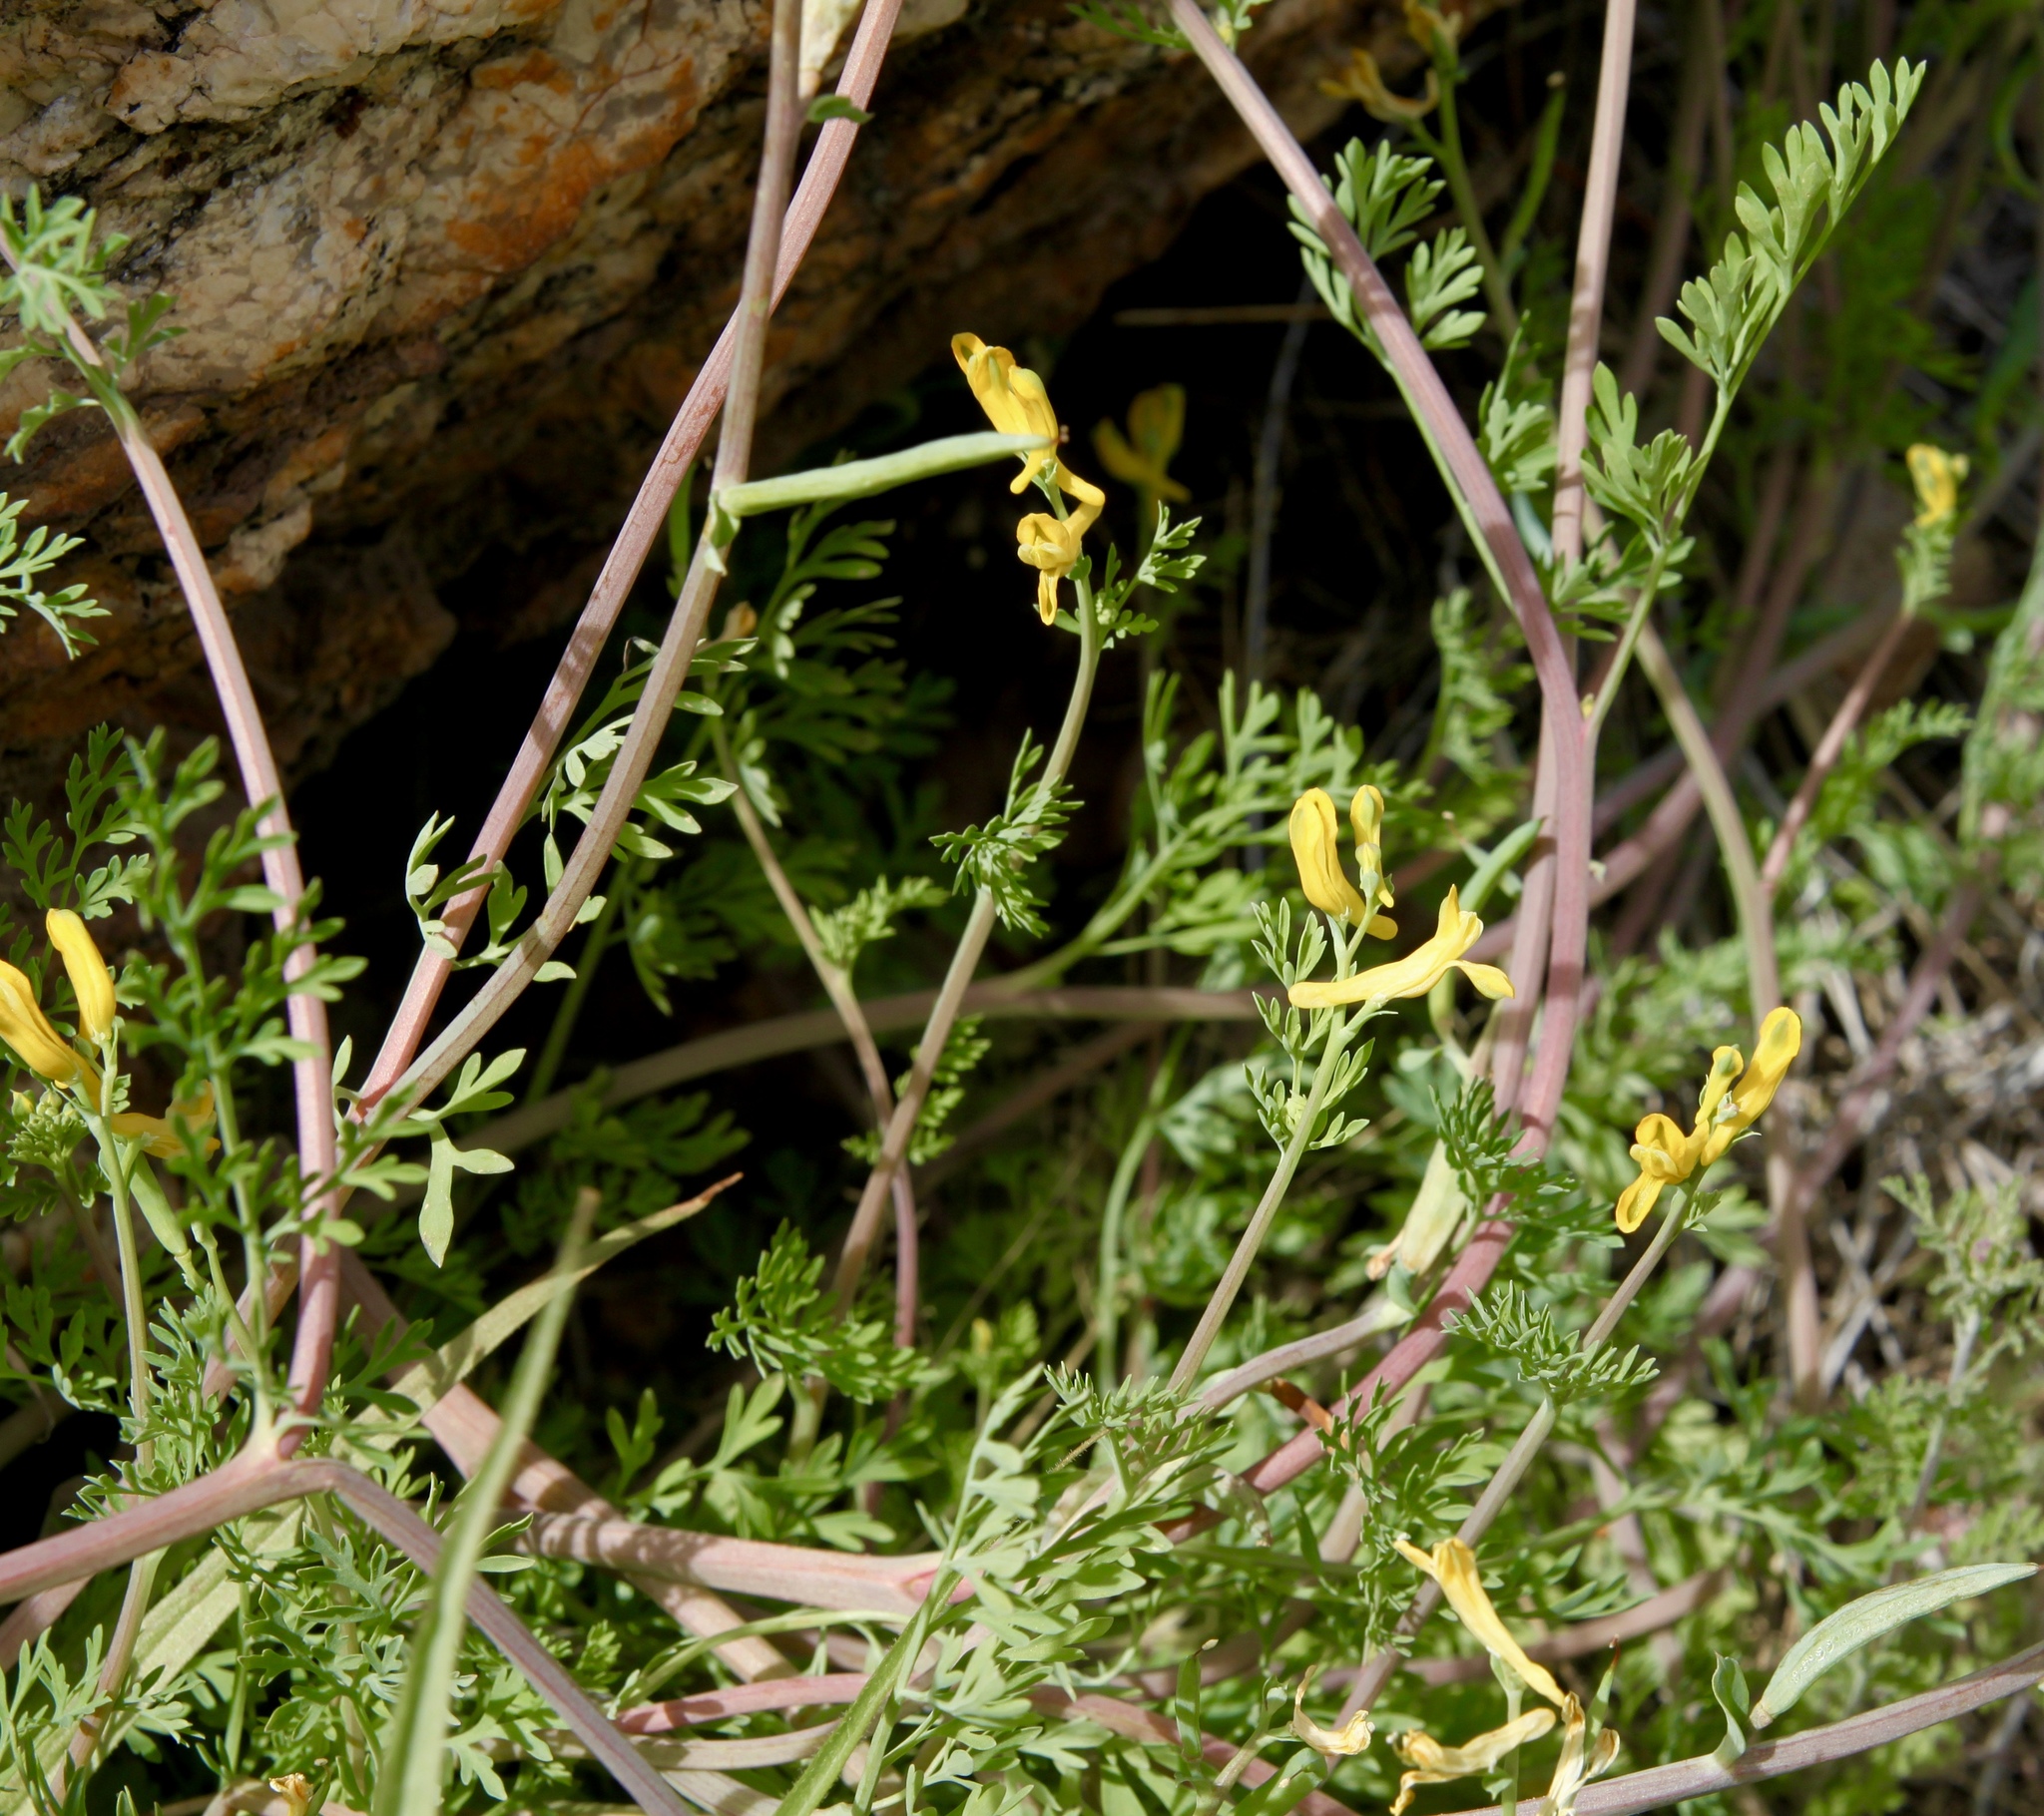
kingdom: Plantae
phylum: Tracheophyta
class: Magnoliopsida
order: Ranunculales
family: Papaveraceae
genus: Corydalis
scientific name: Corydalis aurea
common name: Golden corydalis
